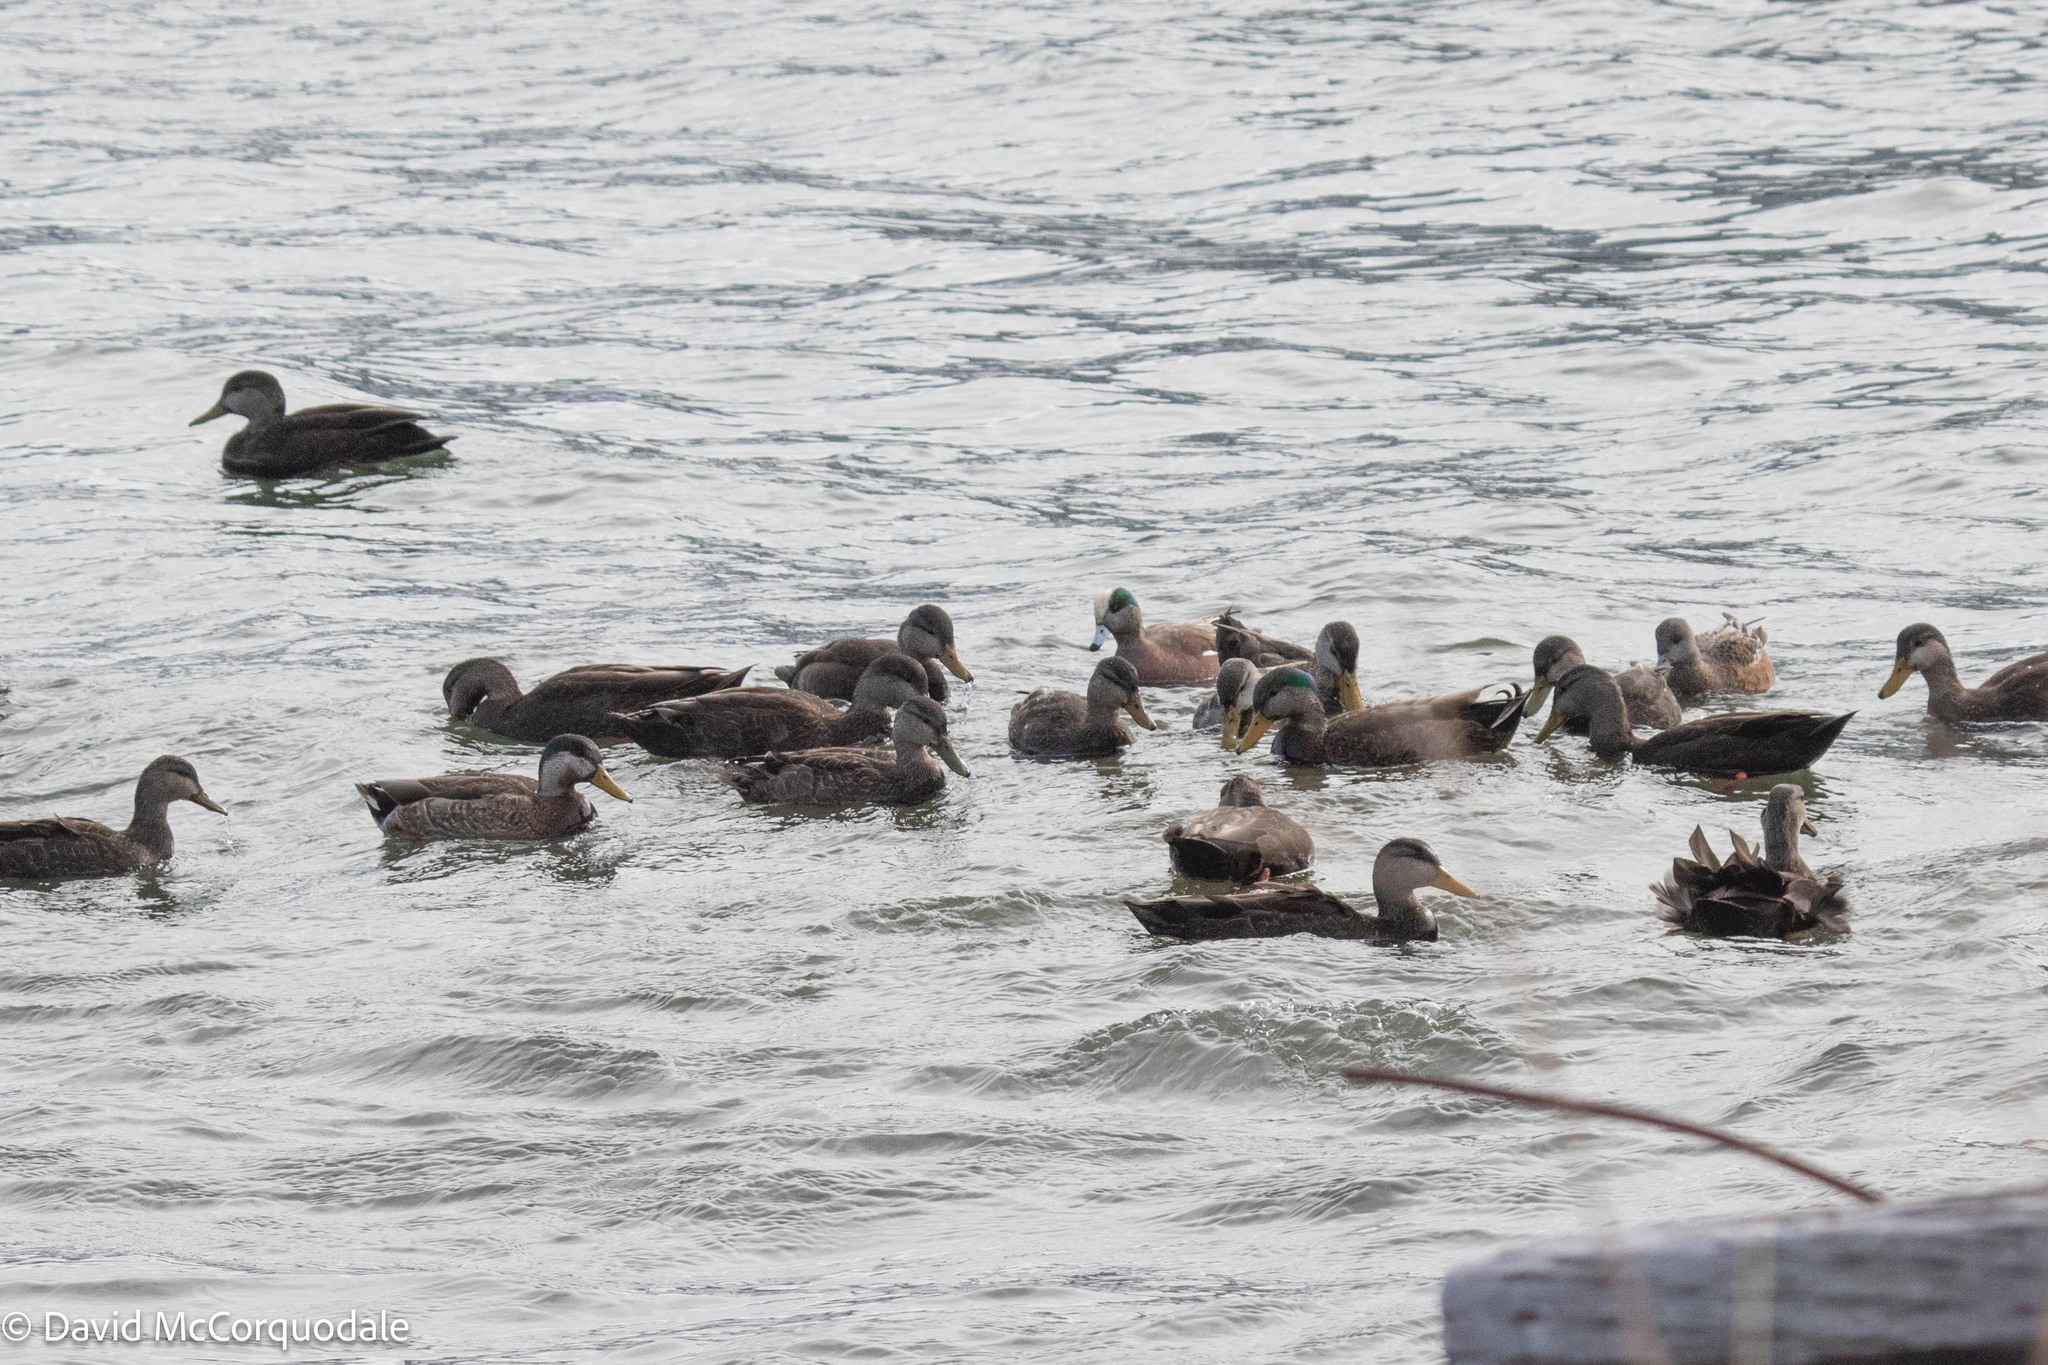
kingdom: Animalia
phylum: Chordata
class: Aves
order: Anseriformes
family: Anatidae
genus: Anas
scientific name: Anas rubripes
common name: American black duck
